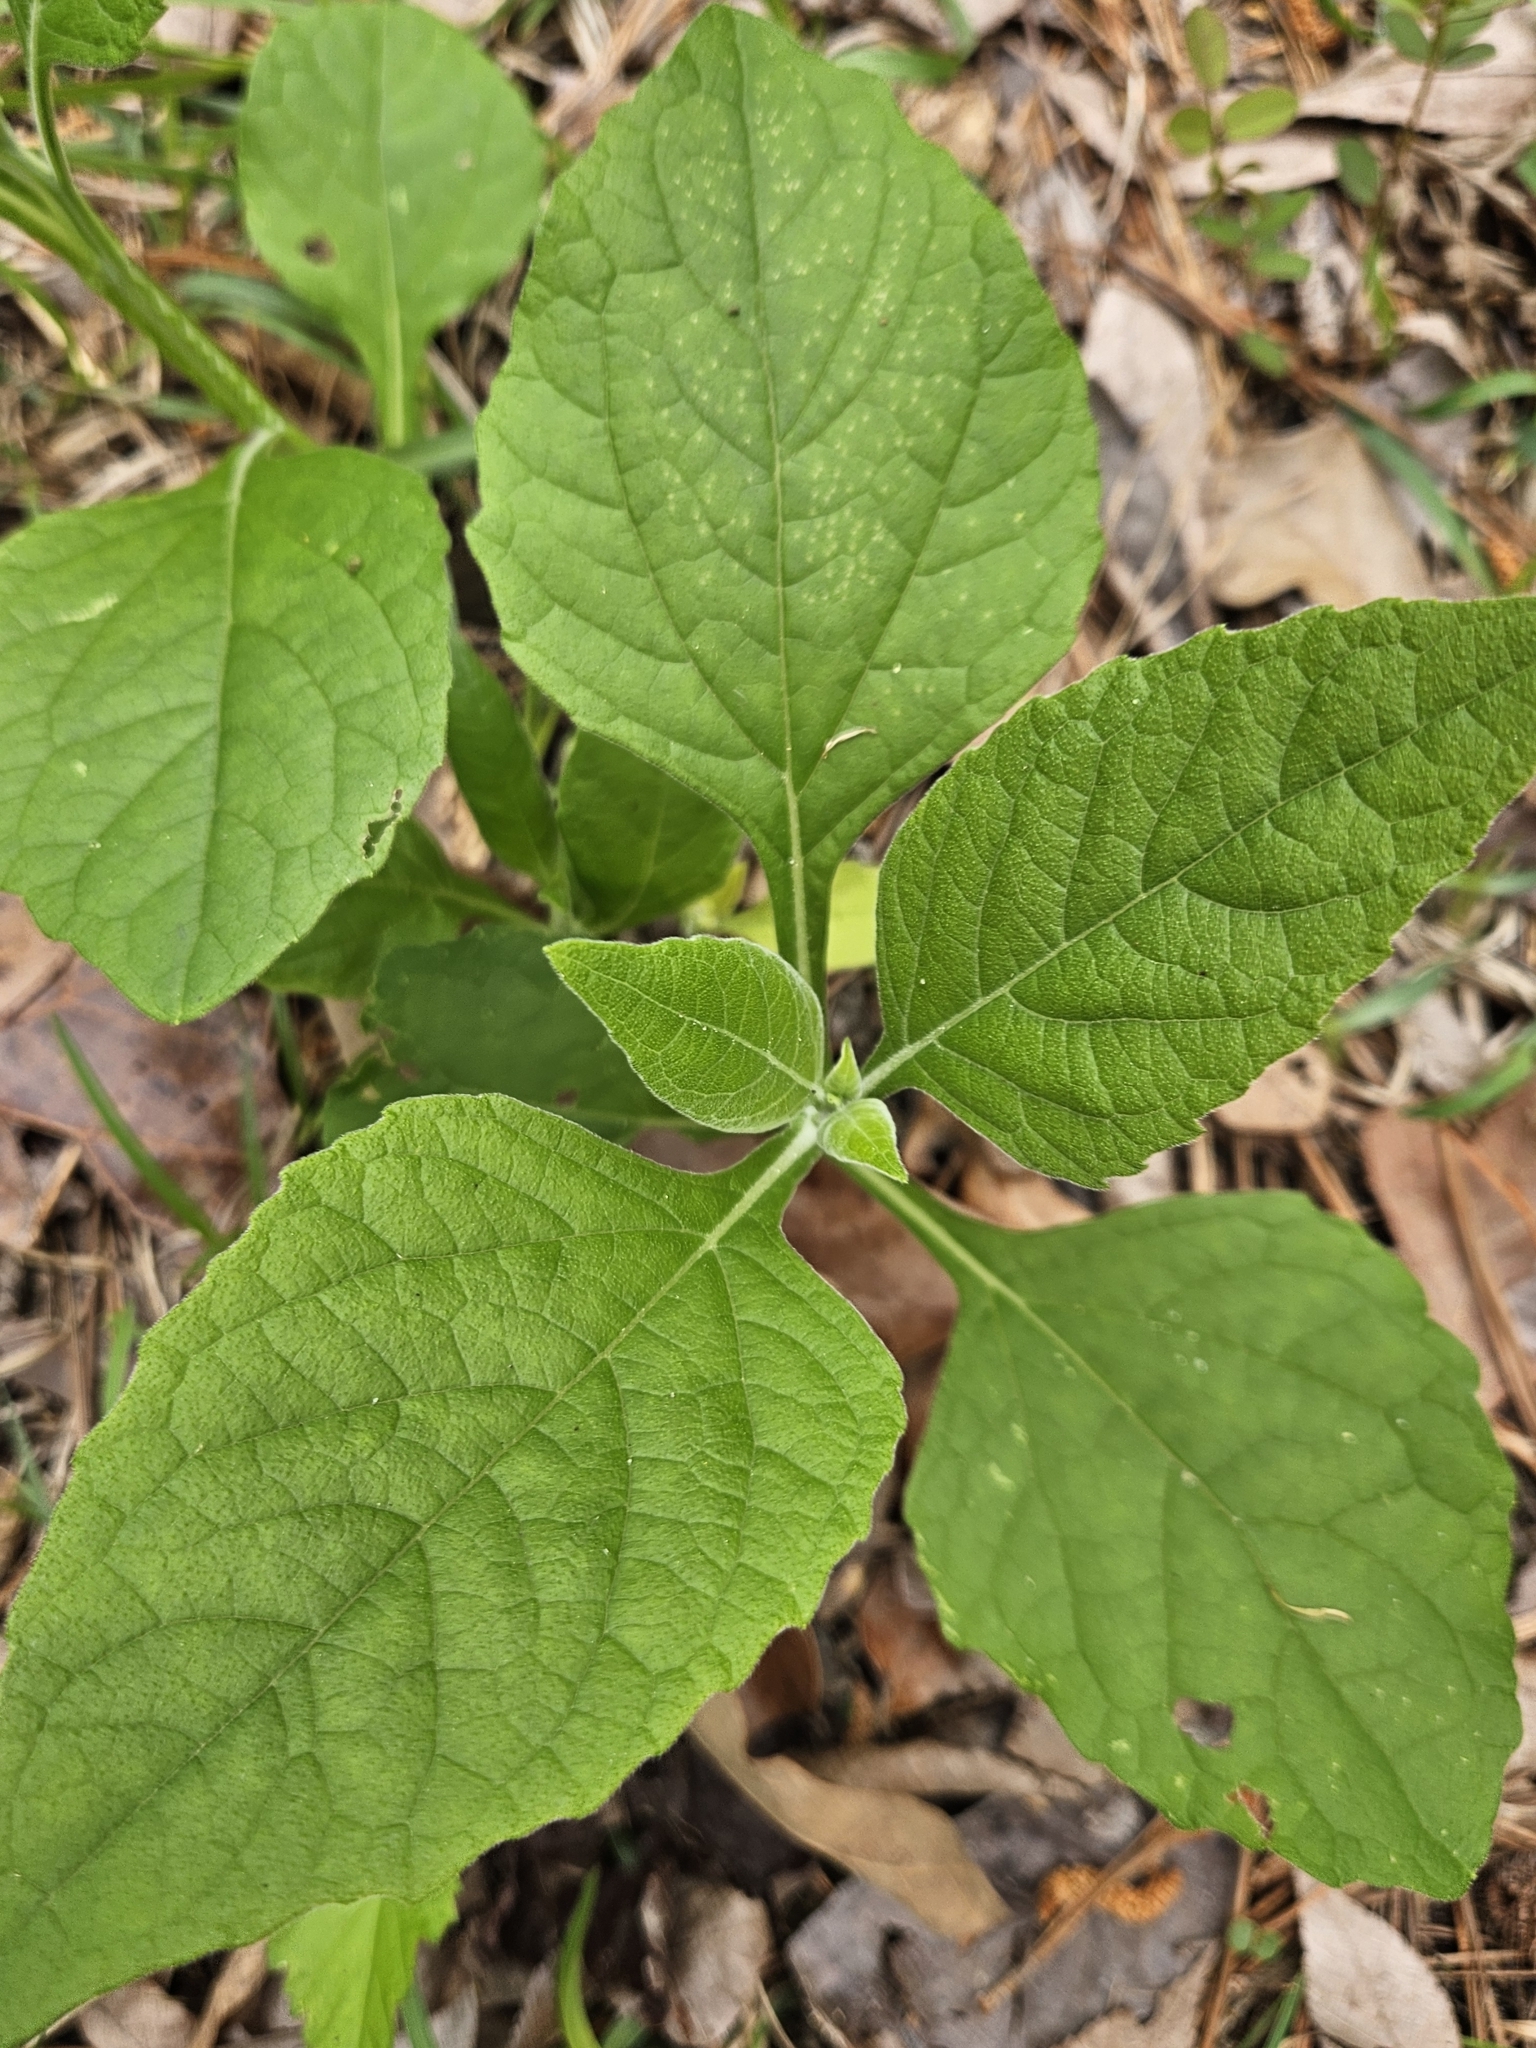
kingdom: Plantae
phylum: Tracheophyta
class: Magnoliopsida
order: Asterales
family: Asteraceae
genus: Verbesina
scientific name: Verbesina virginica
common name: Frostweed
